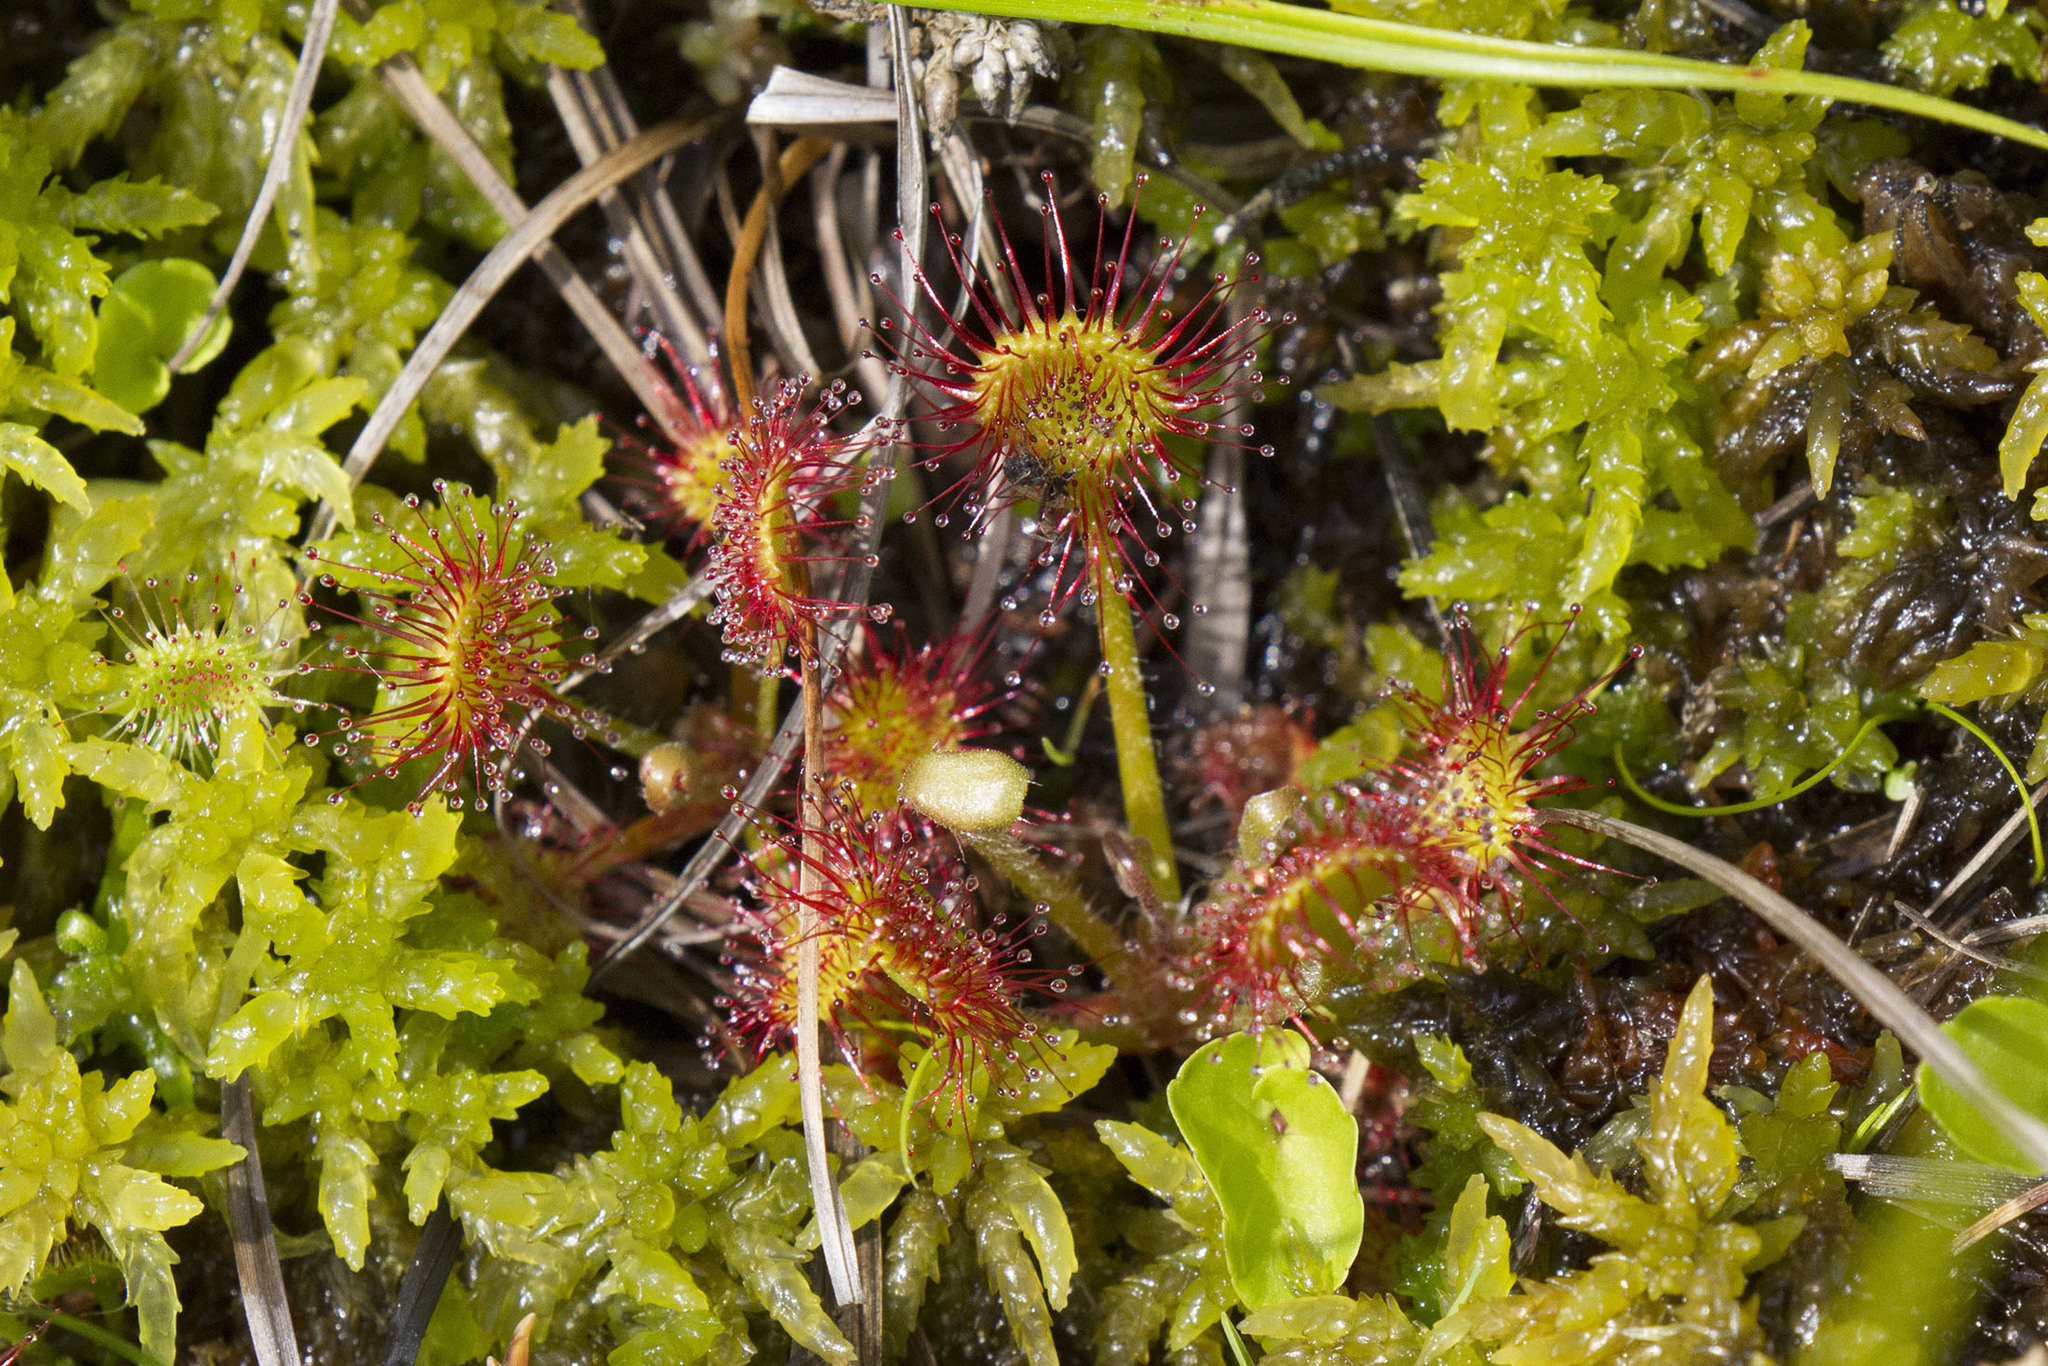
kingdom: Plantae
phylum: Tracheophyta
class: Magnoliopsida
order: Caryophyllales
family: Droseraceae
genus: Drosera
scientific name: Drosera rotundifolia
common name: Round-leaved sundew
